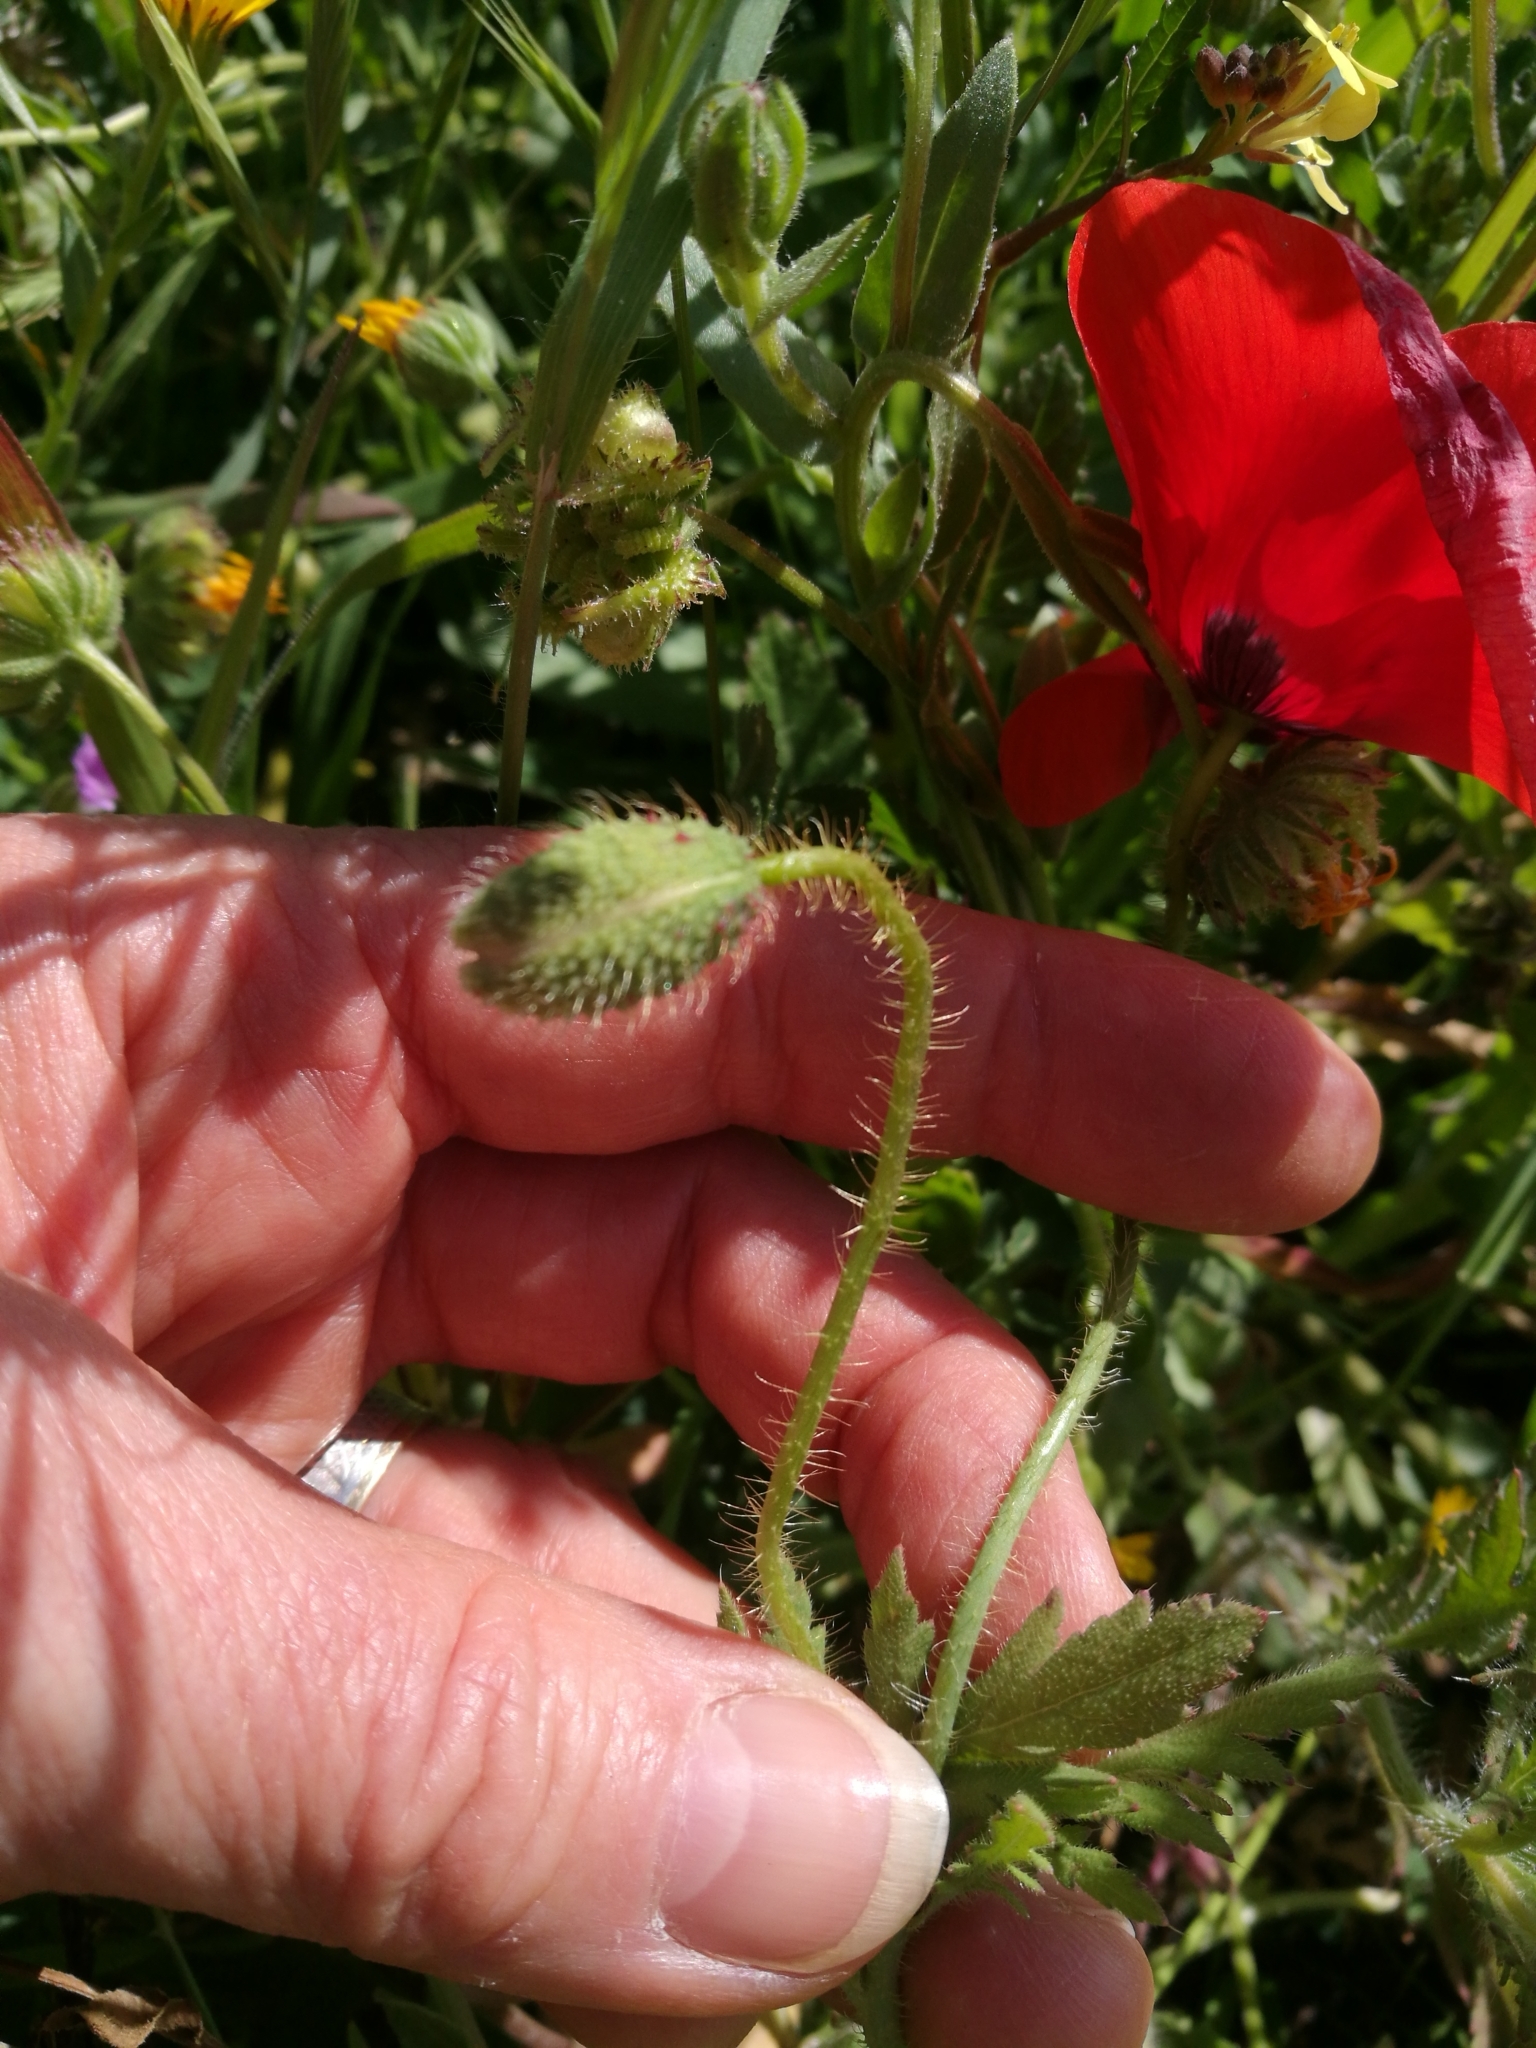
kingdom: Plantae
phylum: Tracheophyta
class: Magnoliopsida
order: Ranunculales
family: Papaveraceae
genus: Papaver
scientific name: Papaver rhoeas
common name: Corn poppy
